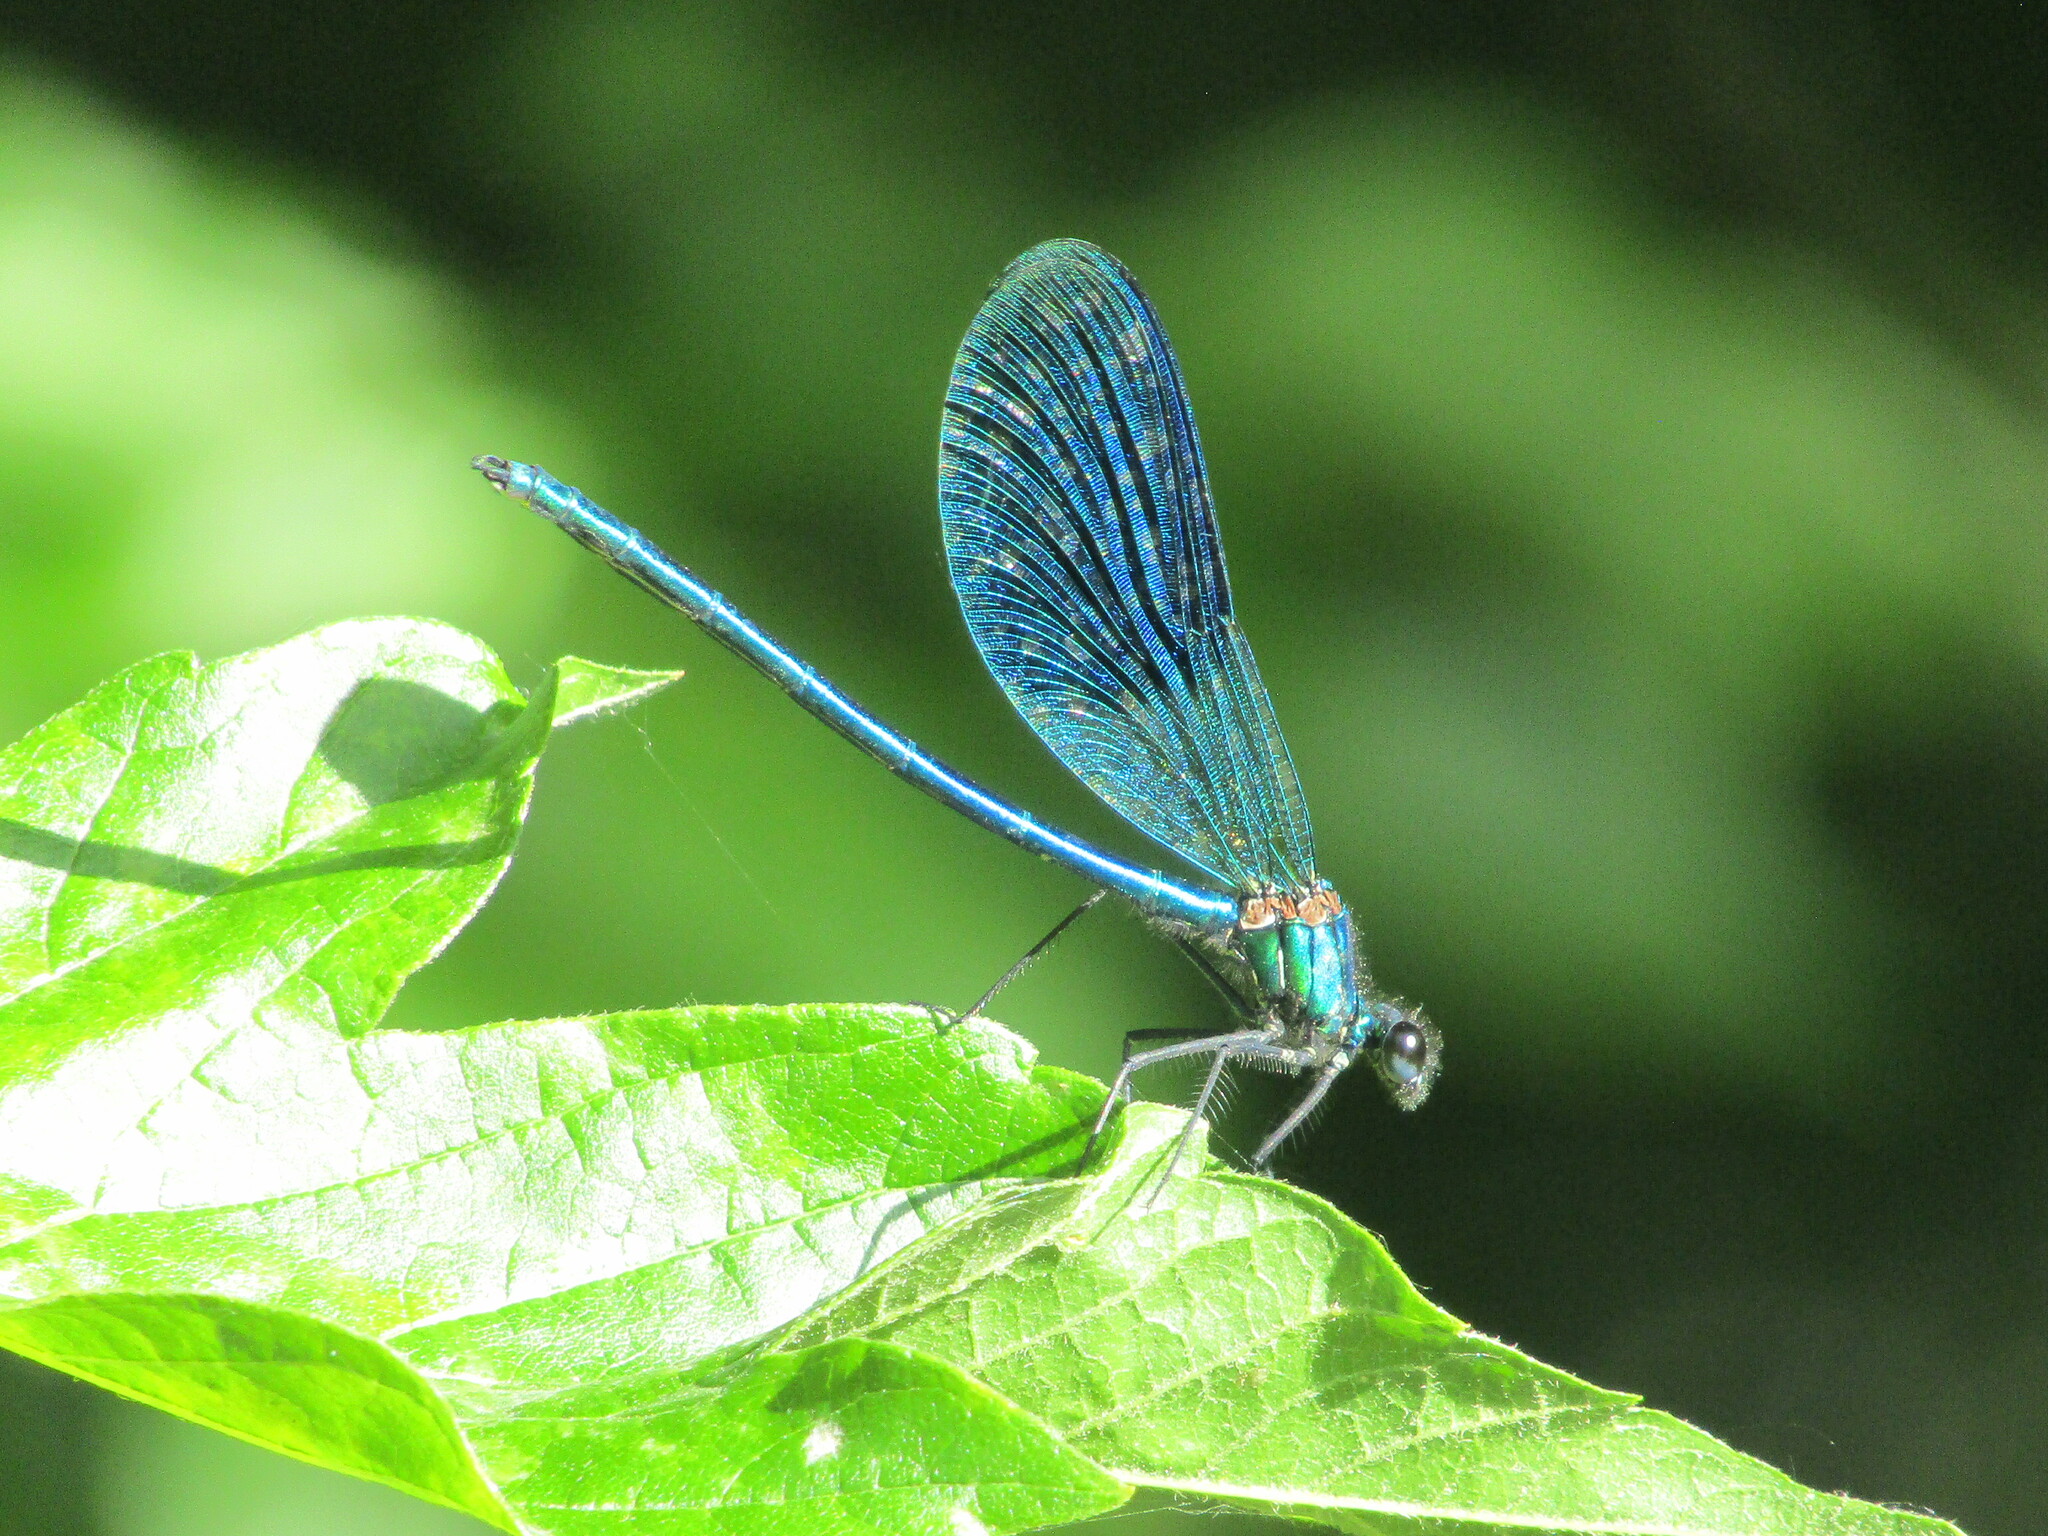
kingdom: Animalia
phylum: Arthropoda
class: Insecta
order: Odonata
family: Calopterygidae
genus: Calopteryx
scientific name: Calopteryx splendens
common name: Banded demoiselle
